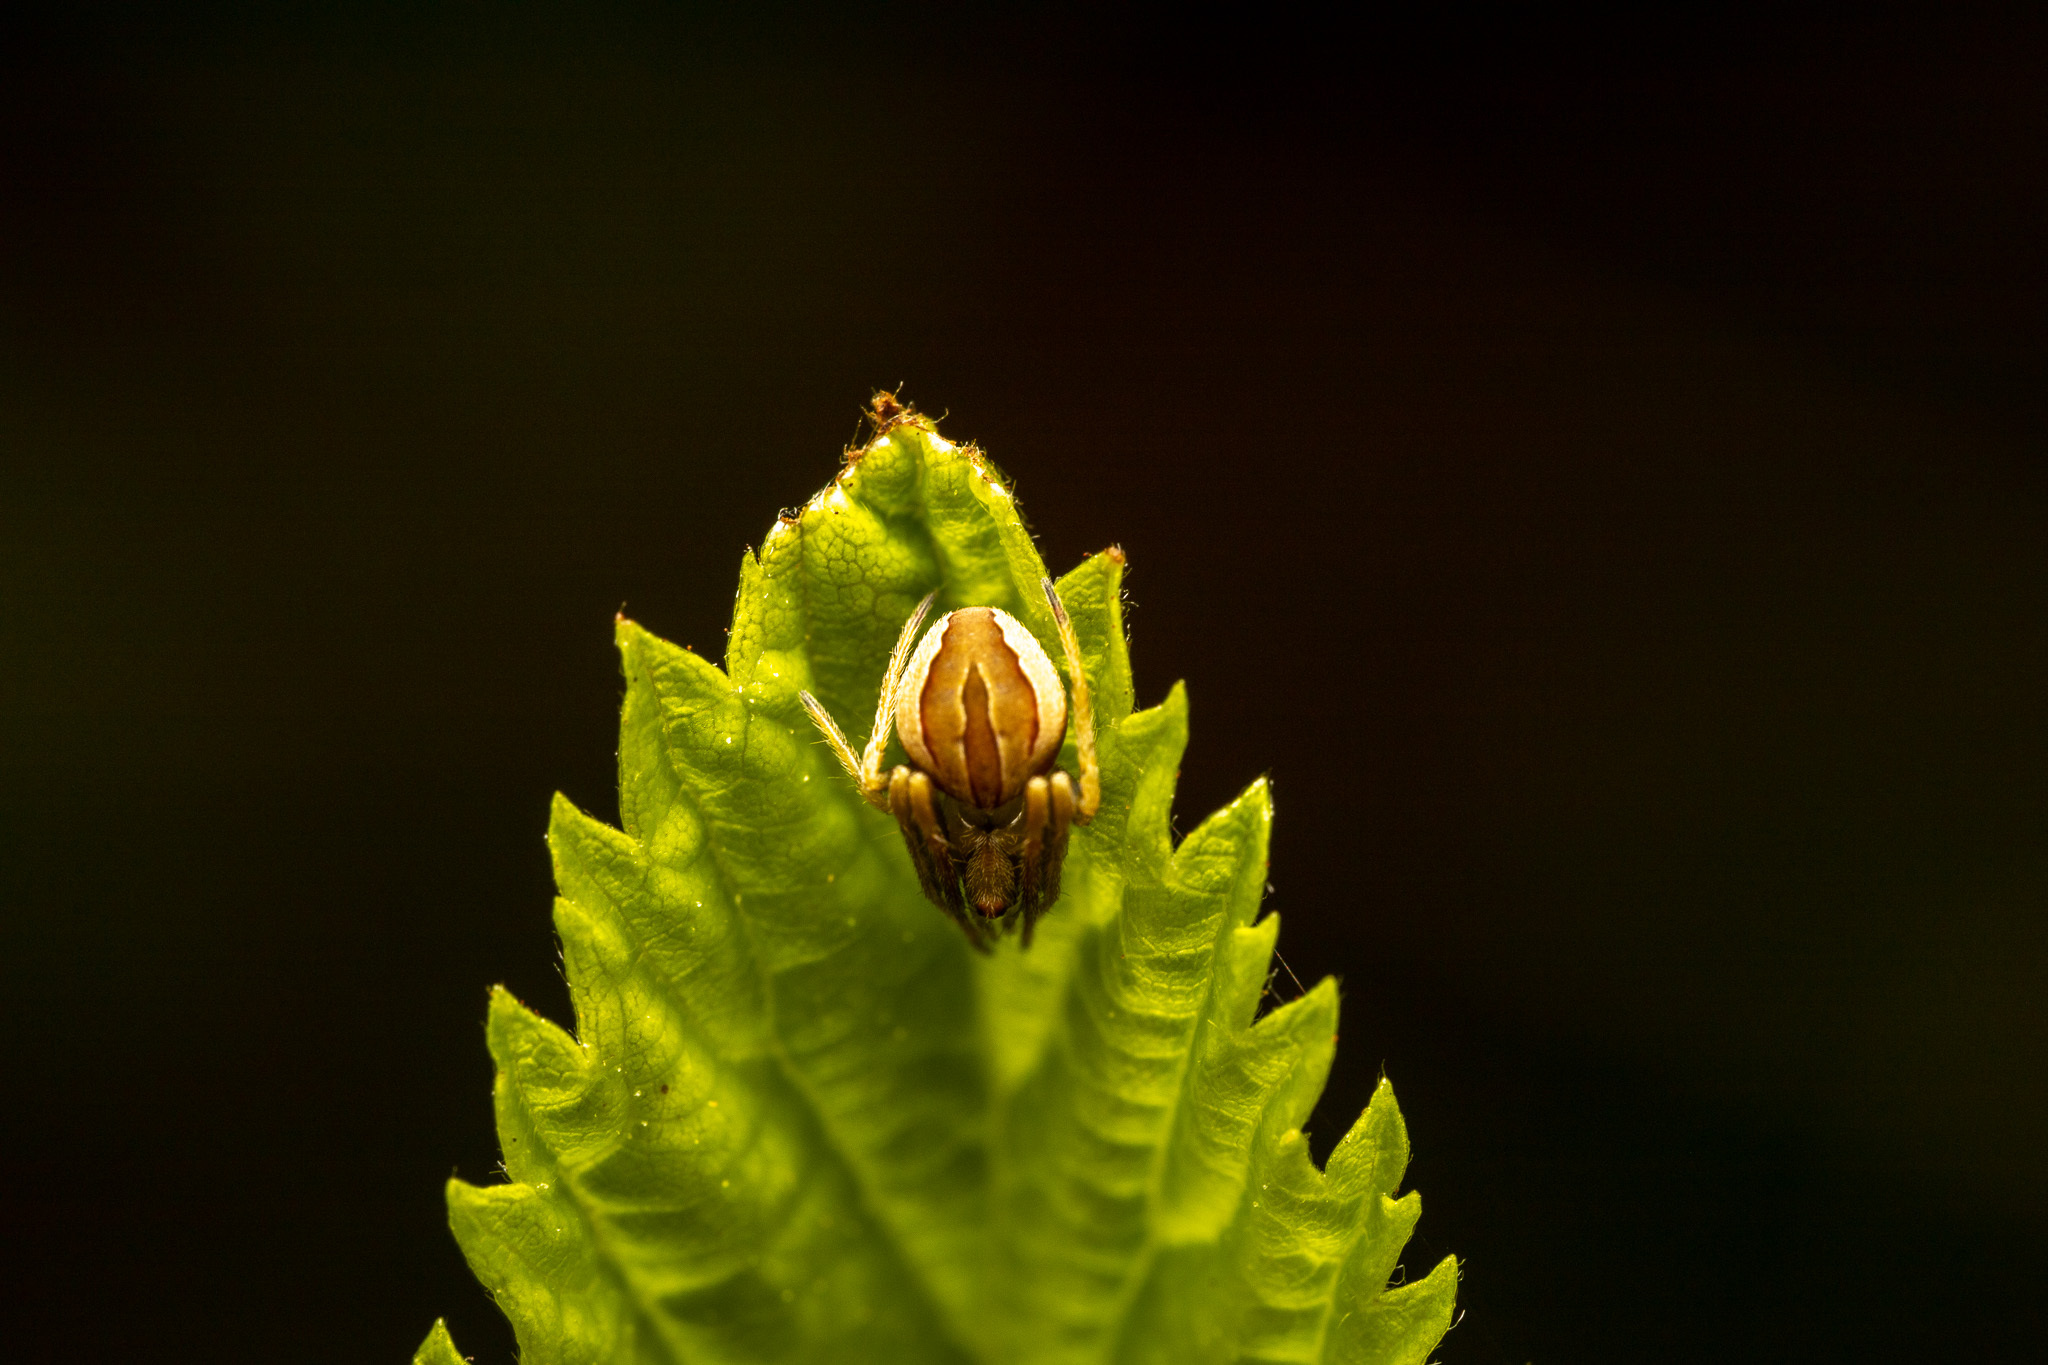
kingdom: Animalia
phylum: Arthropoda
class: Arachnida
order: Araneae
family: Araneidae
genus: Acacesia
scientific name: Acacesia hamata
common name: Orb weavers
